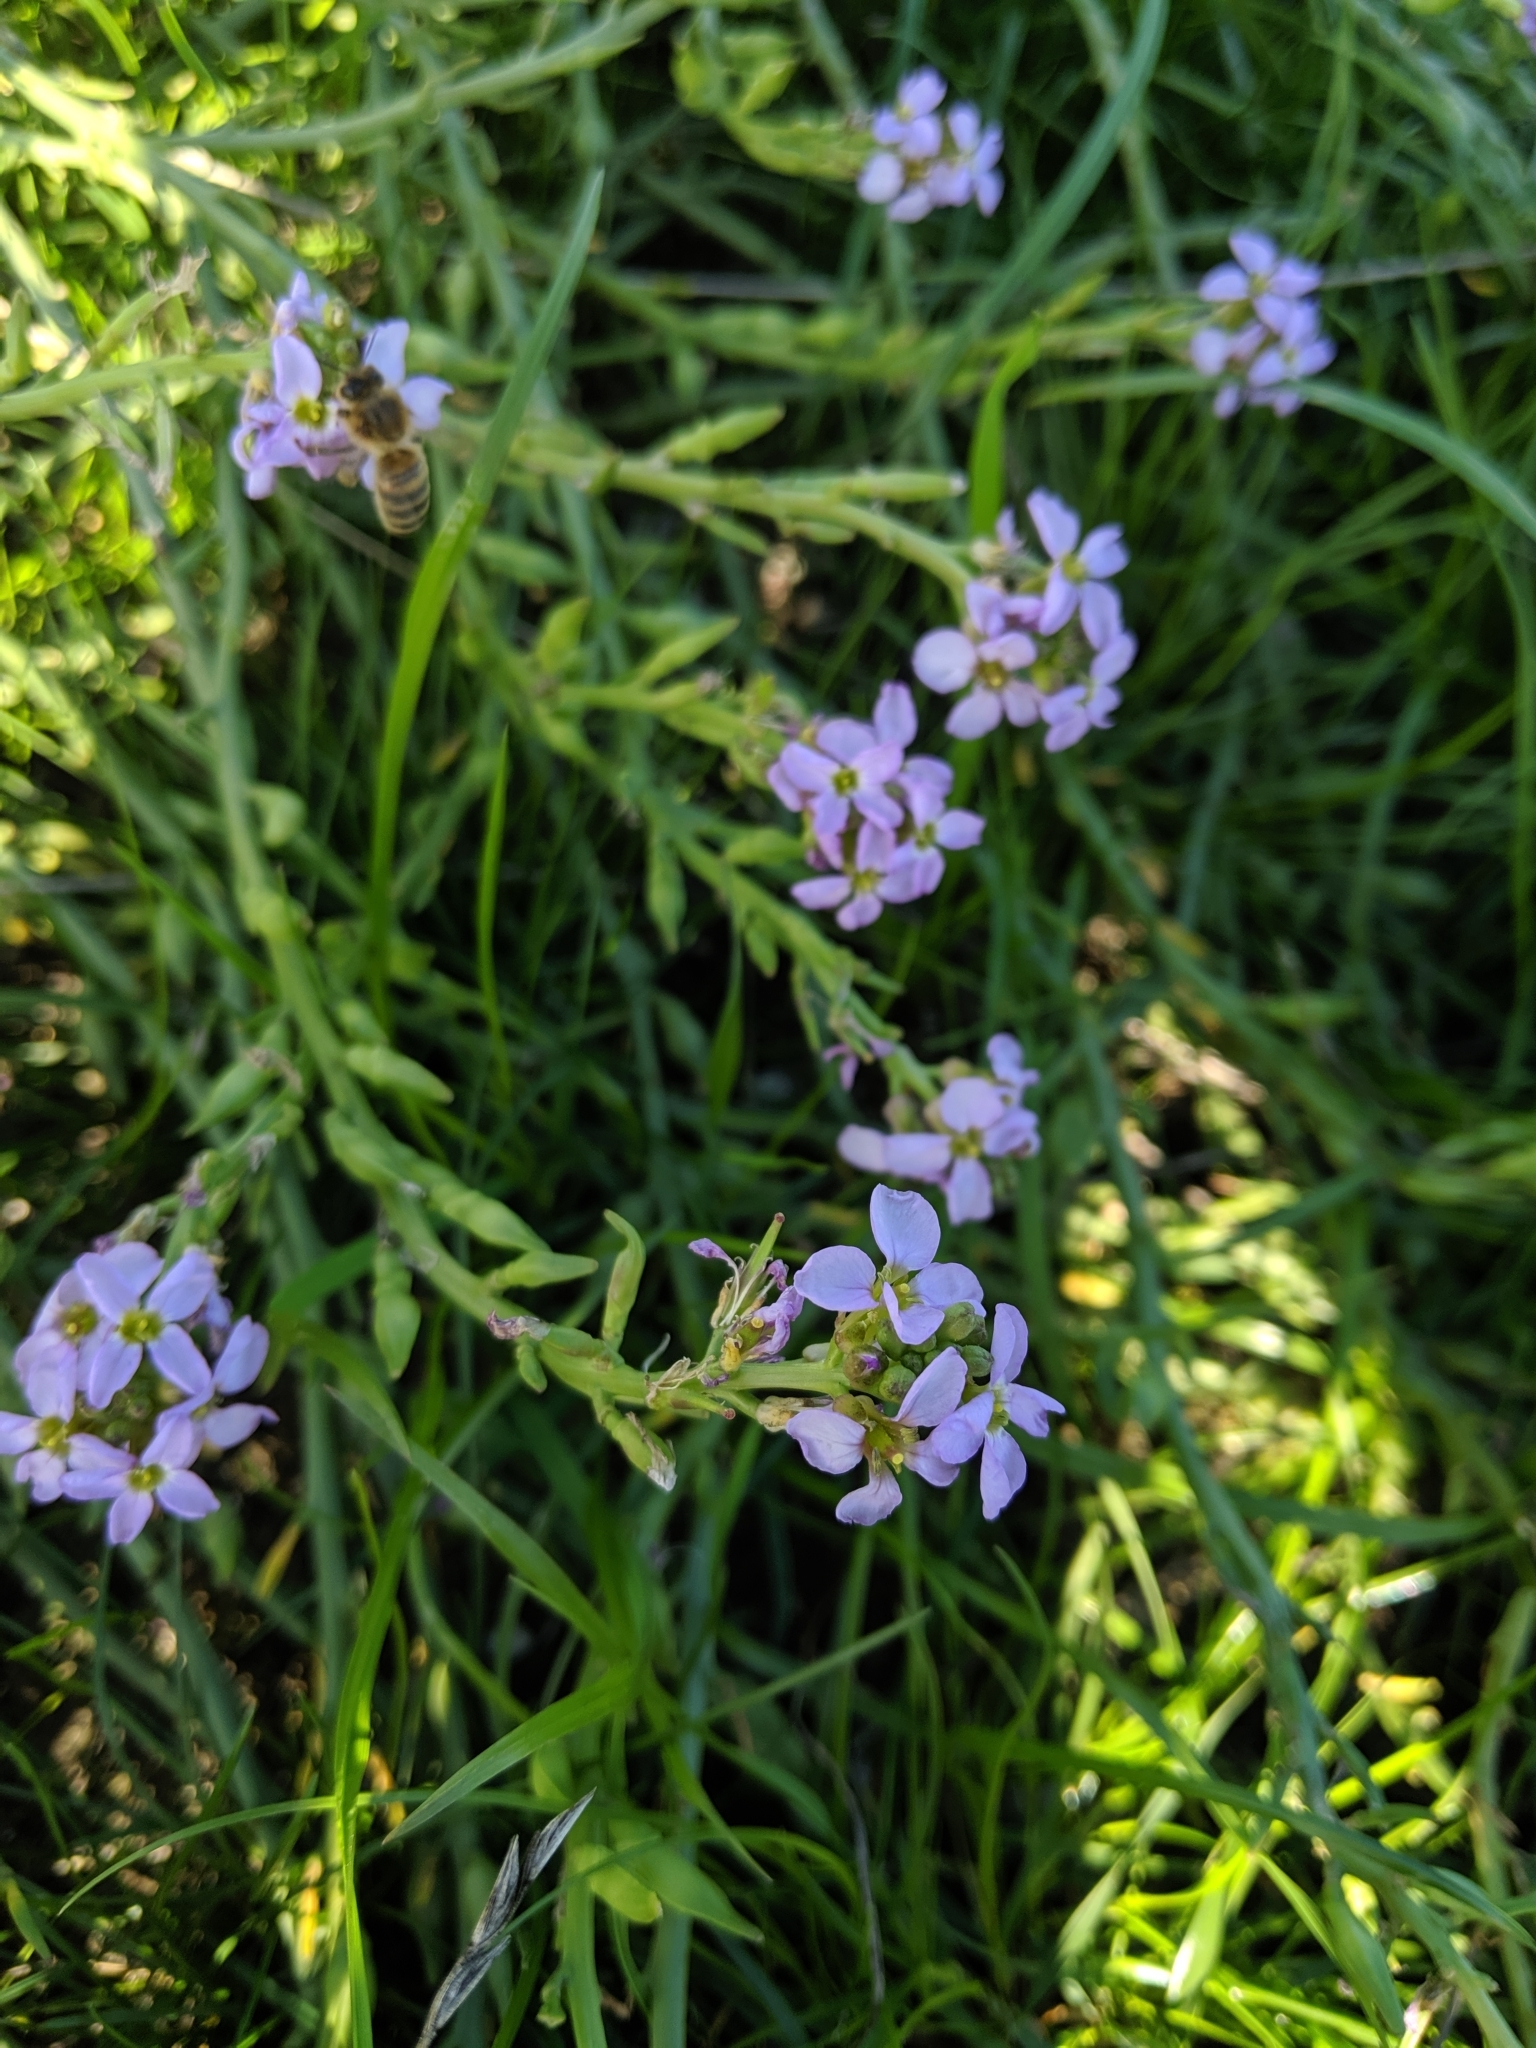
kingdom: Plantae
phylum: Tracheophyta
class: Magnoliopsida
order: Brassicales
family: Brassicaceae
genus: Cakile
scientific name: Cakile maritima
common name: Sea rocket
